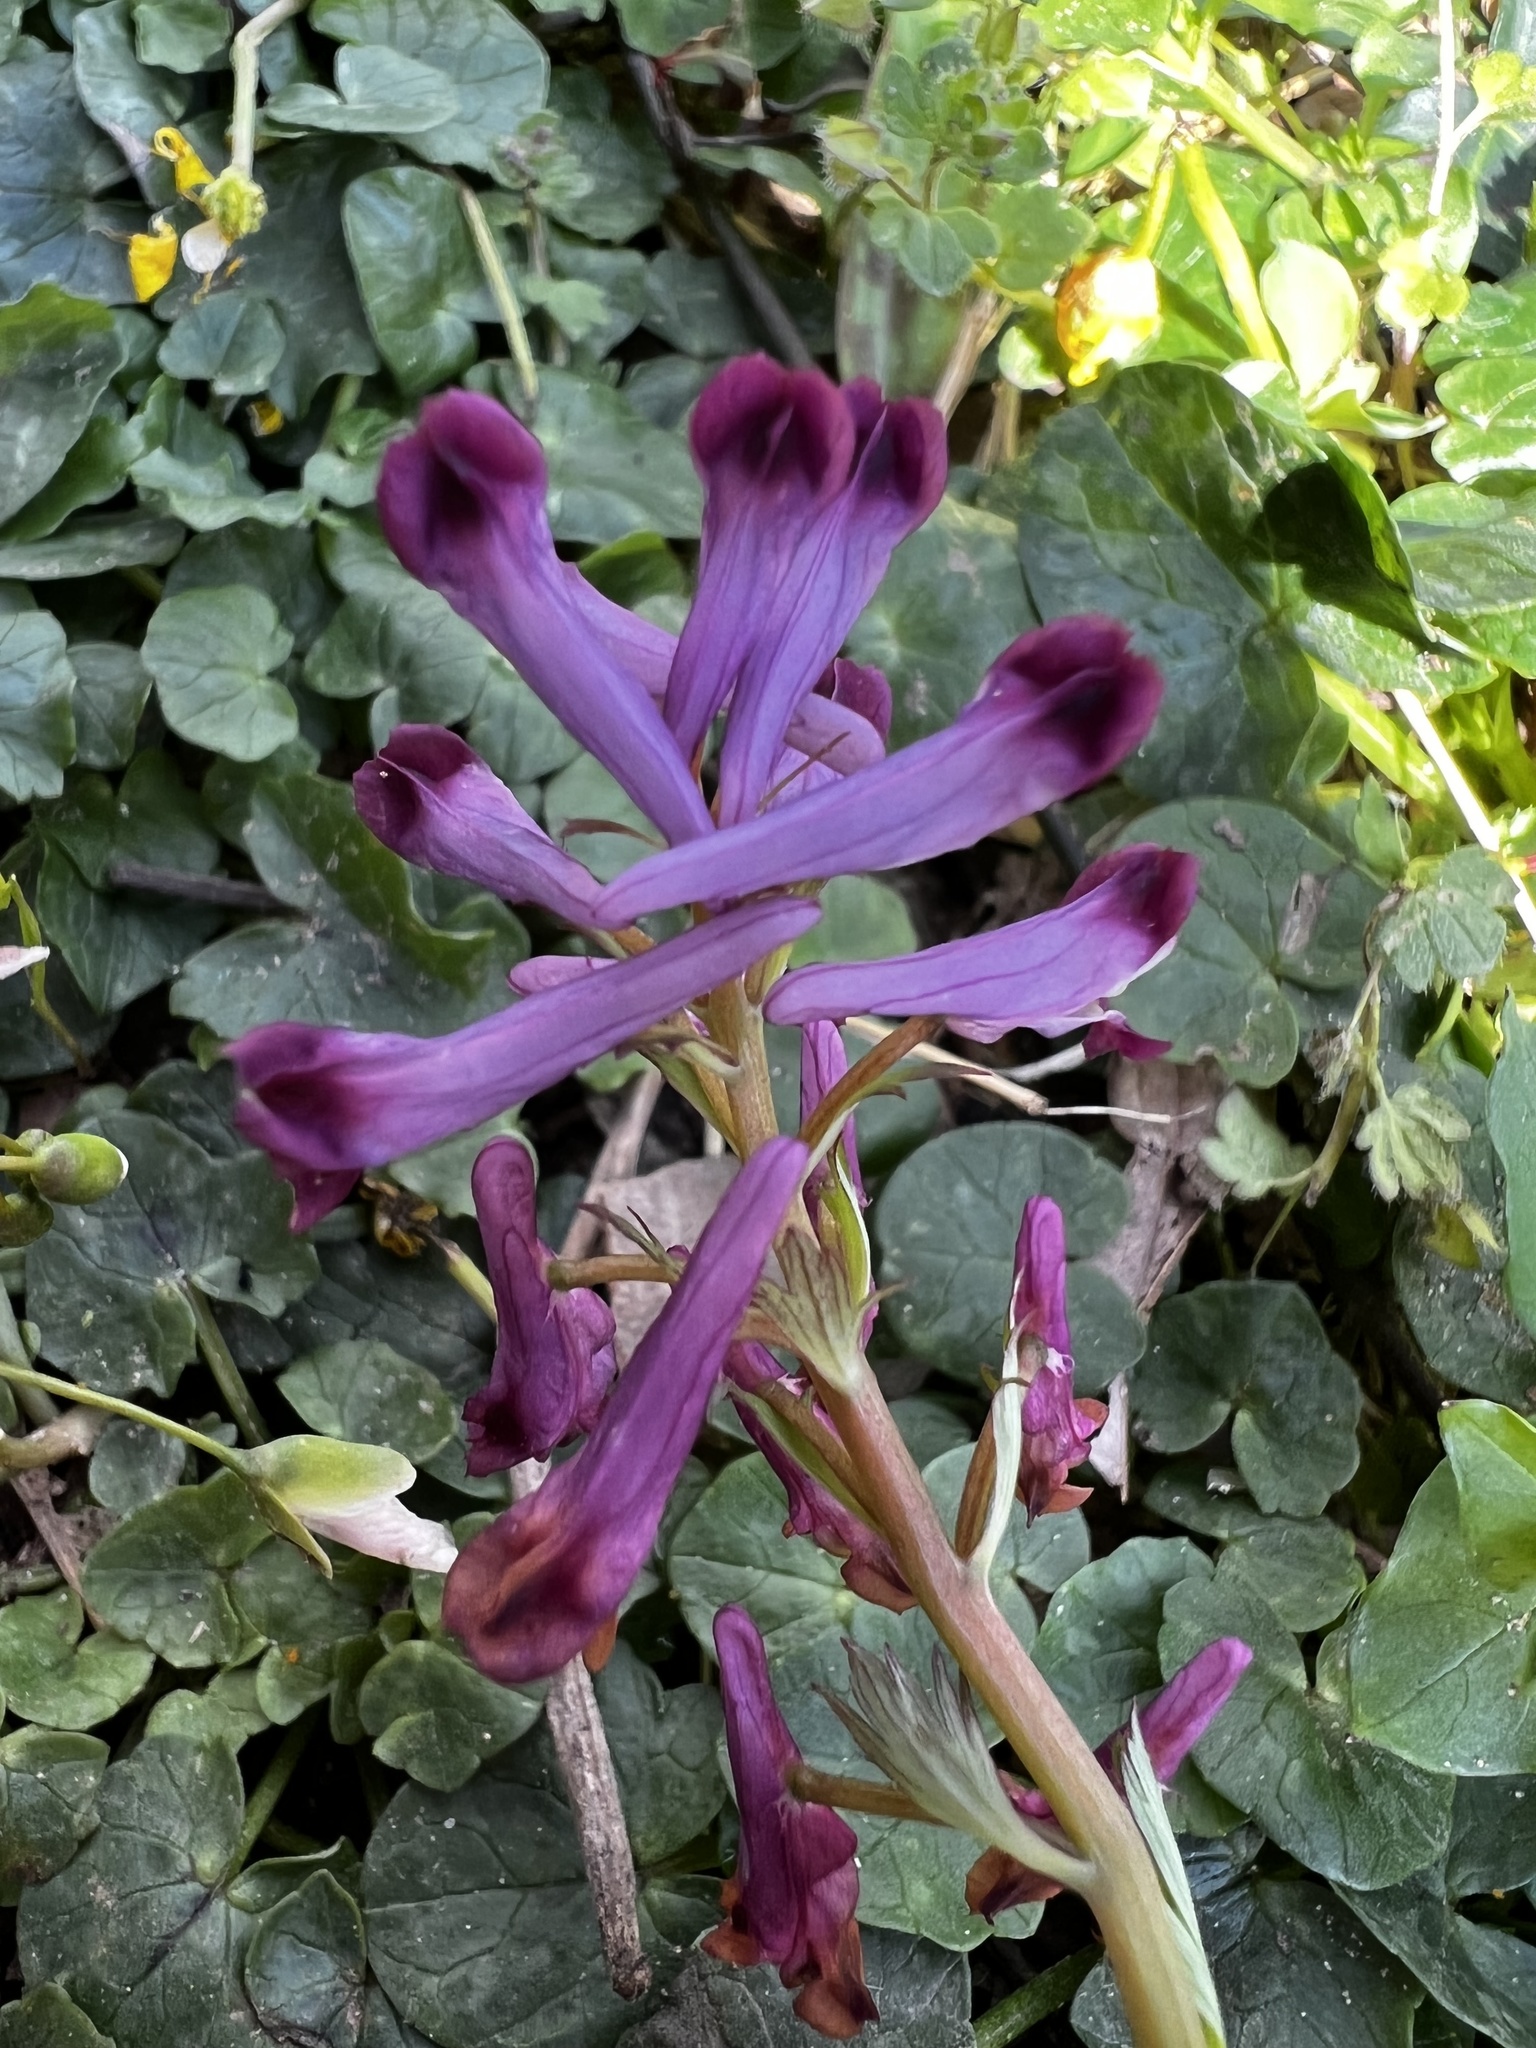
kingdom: Plantae
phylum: Tracheophyta
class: Magnoliopsida
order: Ranunculales
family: Papaveraceae
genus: Corydalis
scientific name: Corydalis incisa
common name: Incised fumewort
